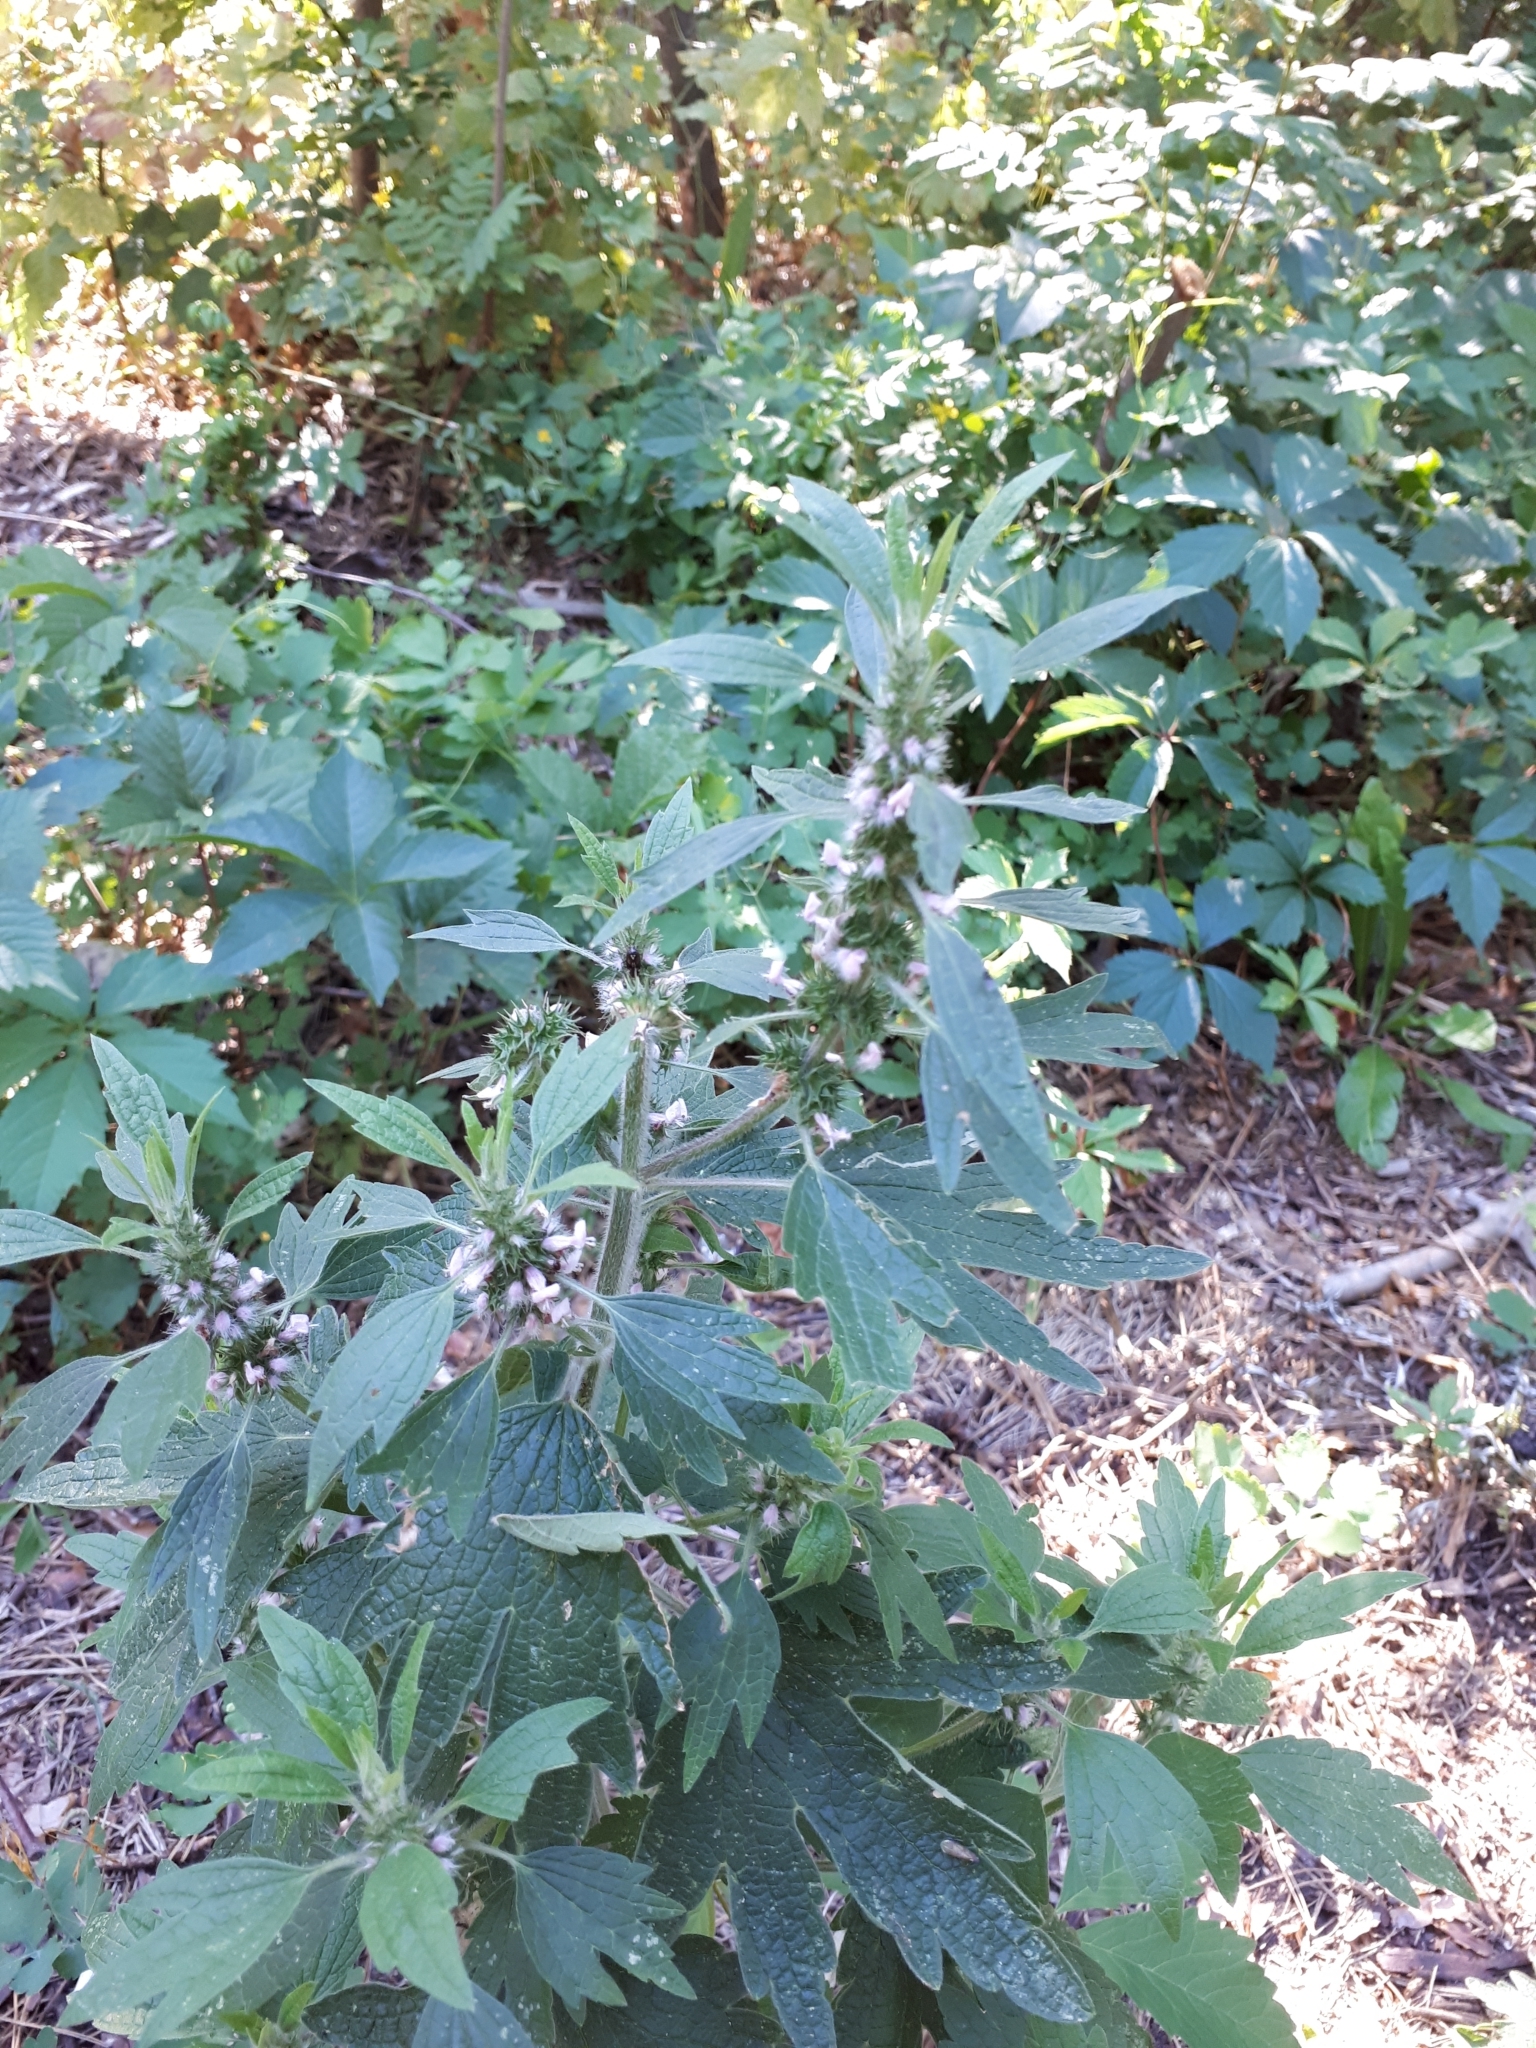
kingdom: Plantae
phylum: Tracheophyta
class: Magnoliopsida
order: Lamiales
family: Lamiaceae
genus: Leonurus
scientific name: Leonurus quinquelobatus
